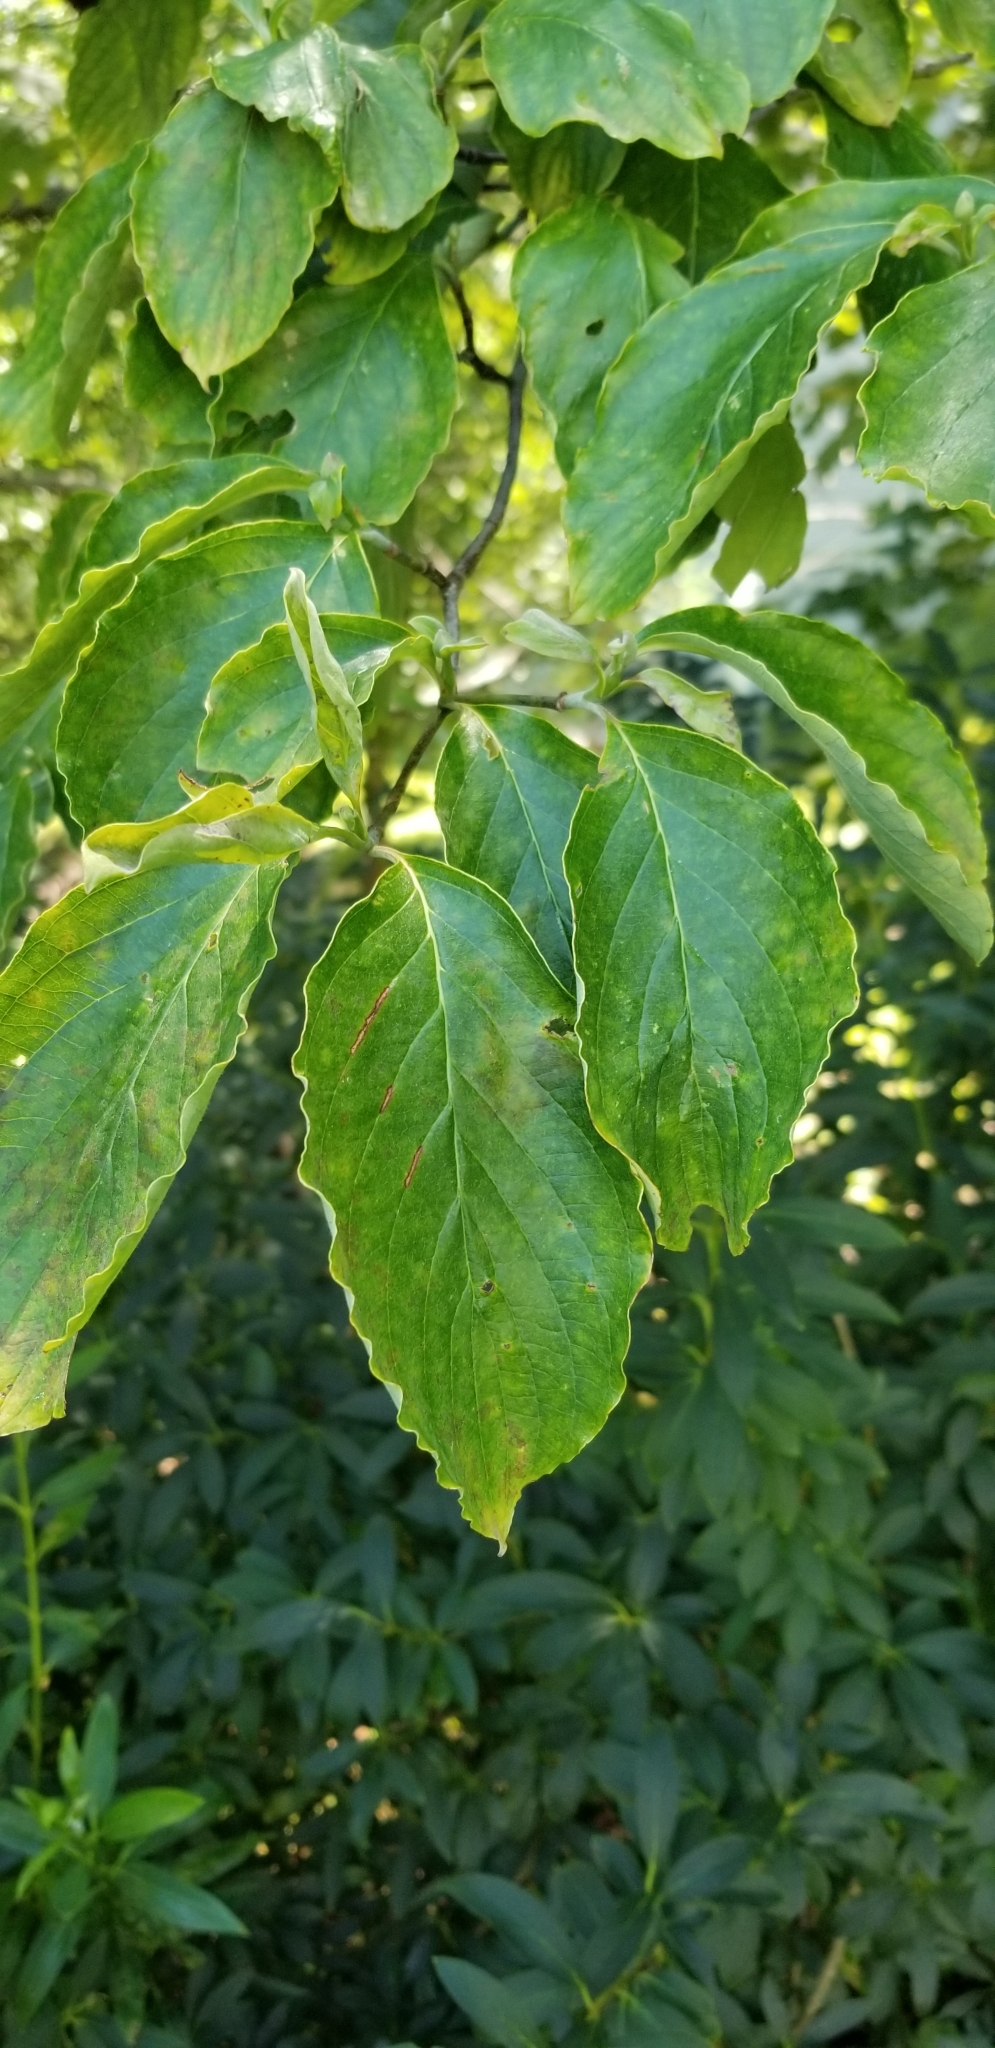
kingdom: Plantae
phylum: Tracheophyta
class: Magnoliopsida
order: Cornales
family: Cornaceae
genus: Cornus
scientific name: Cornus florida
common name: Flowering dogwood
